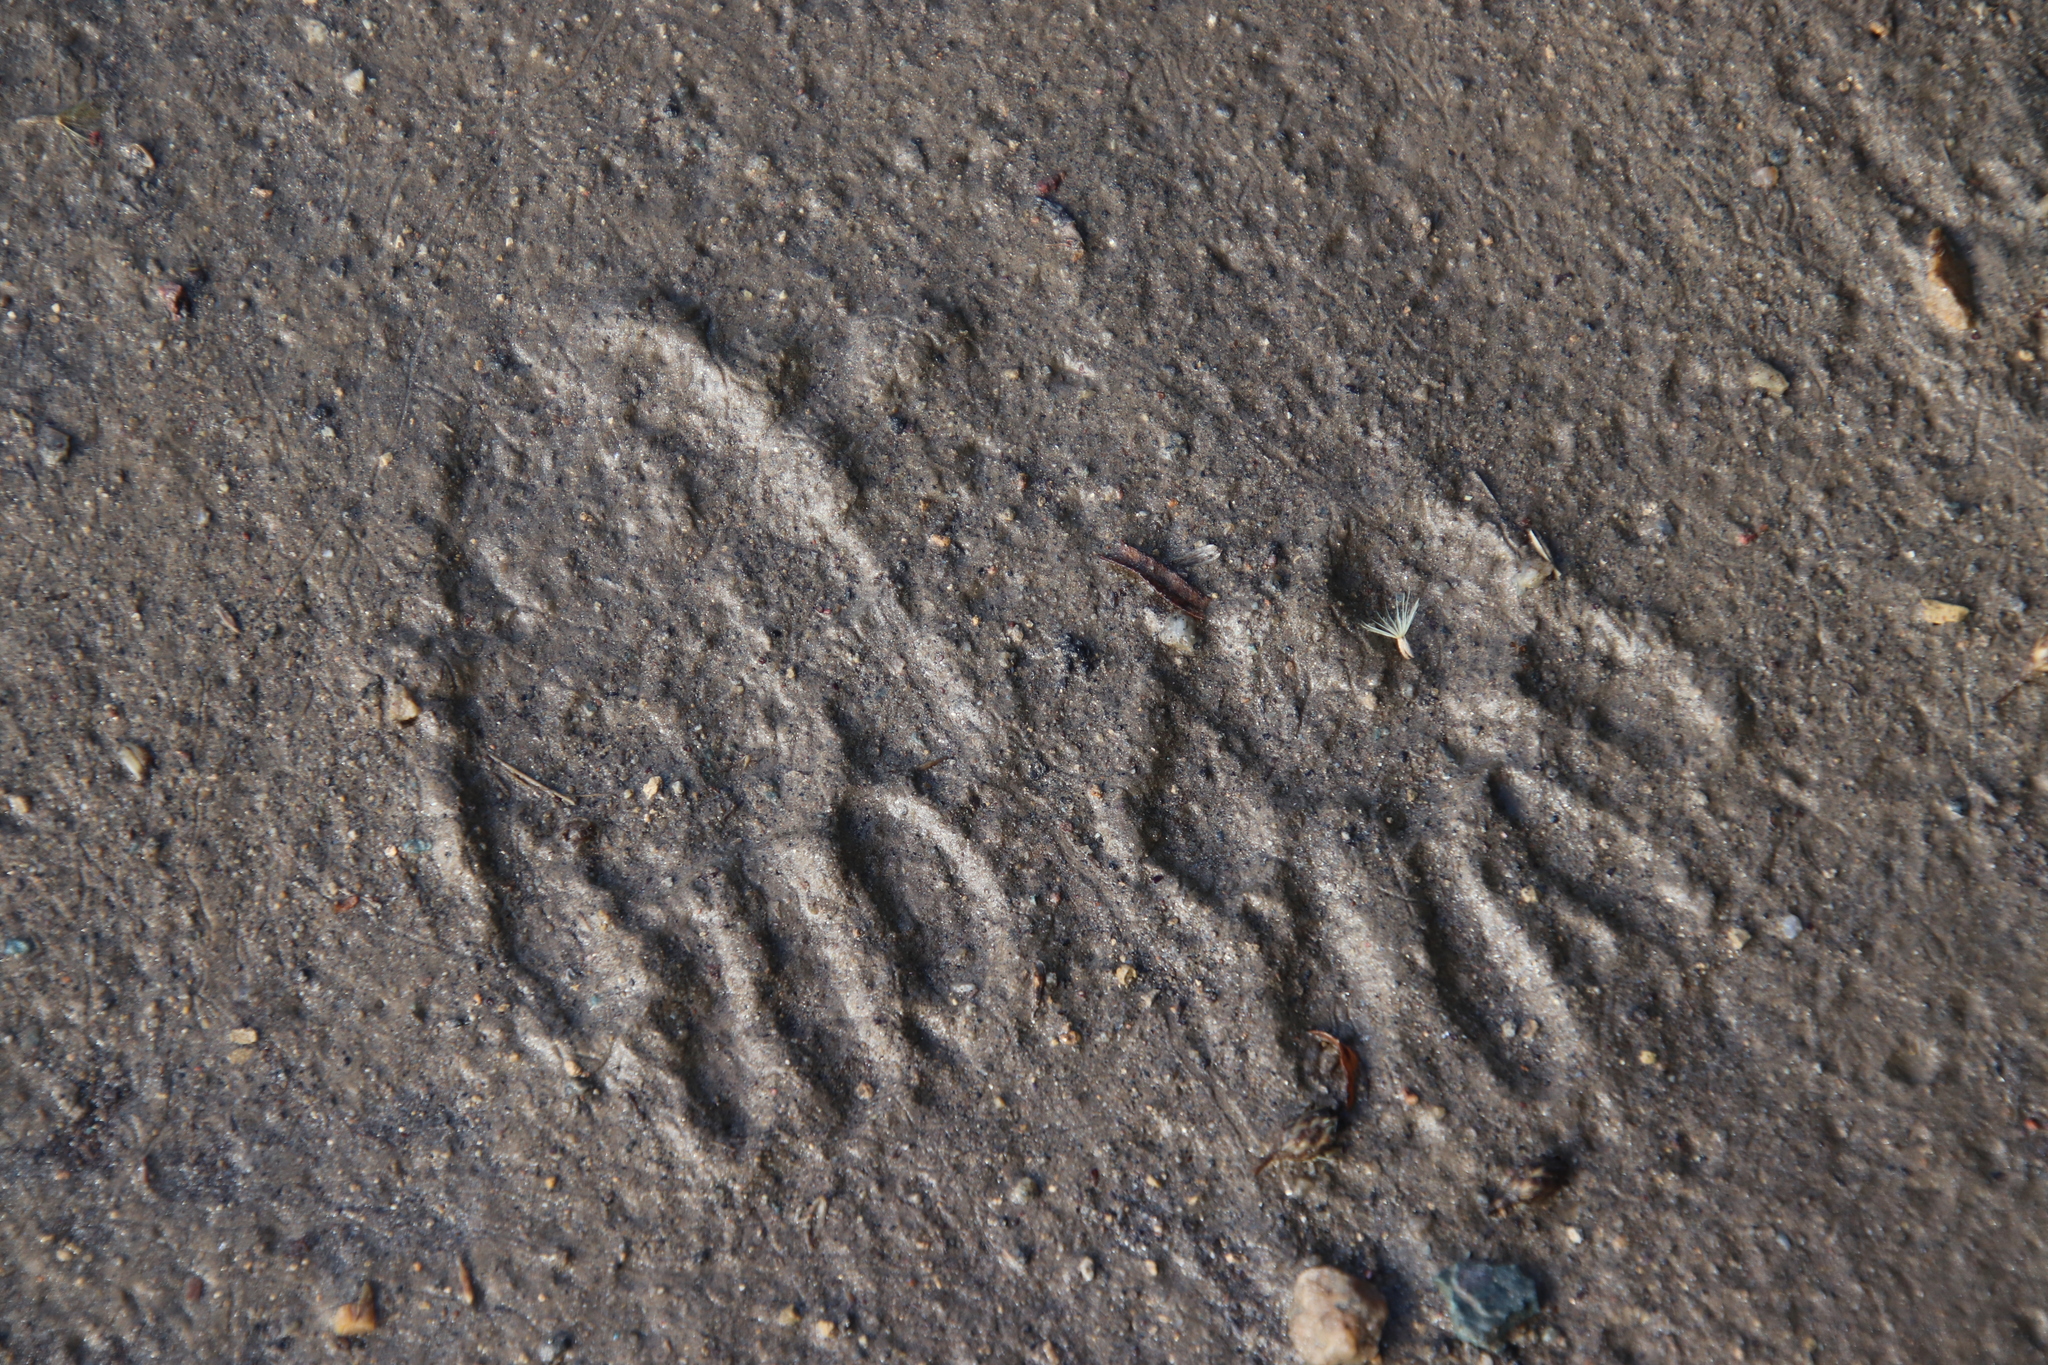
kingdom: Animalia
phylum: Chordata
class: Mammalia
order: Carnivora
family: Procyonidae
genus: Procyon
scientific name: Procyon lotor
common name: Raccoon
